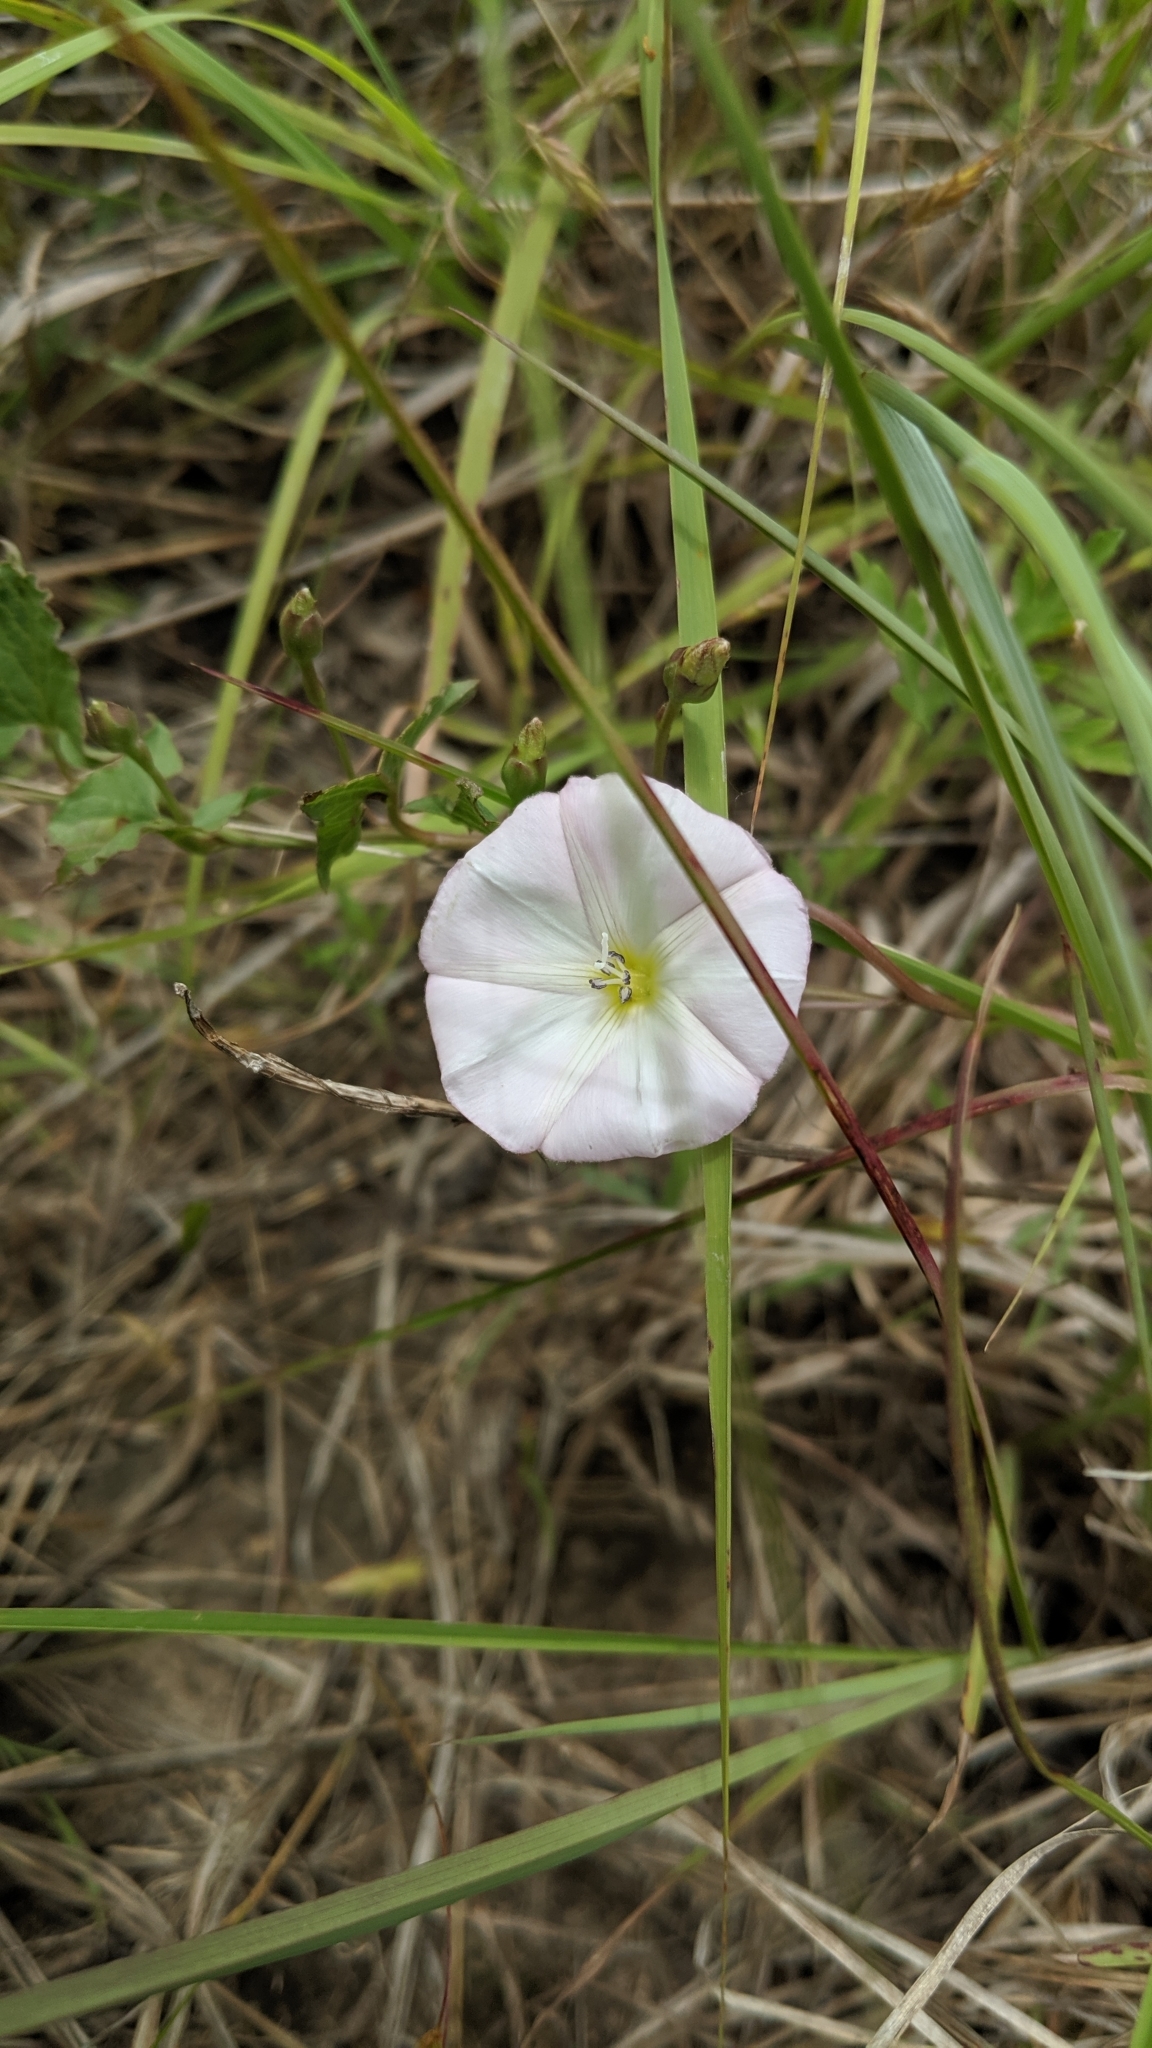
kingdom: Plantae
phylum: Tracheophyta
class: Magnoliopsida
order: Solanales
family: Convolvulaceae
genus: Convolvulus
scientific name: Convolvulus arvensis
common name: Field bindweed
